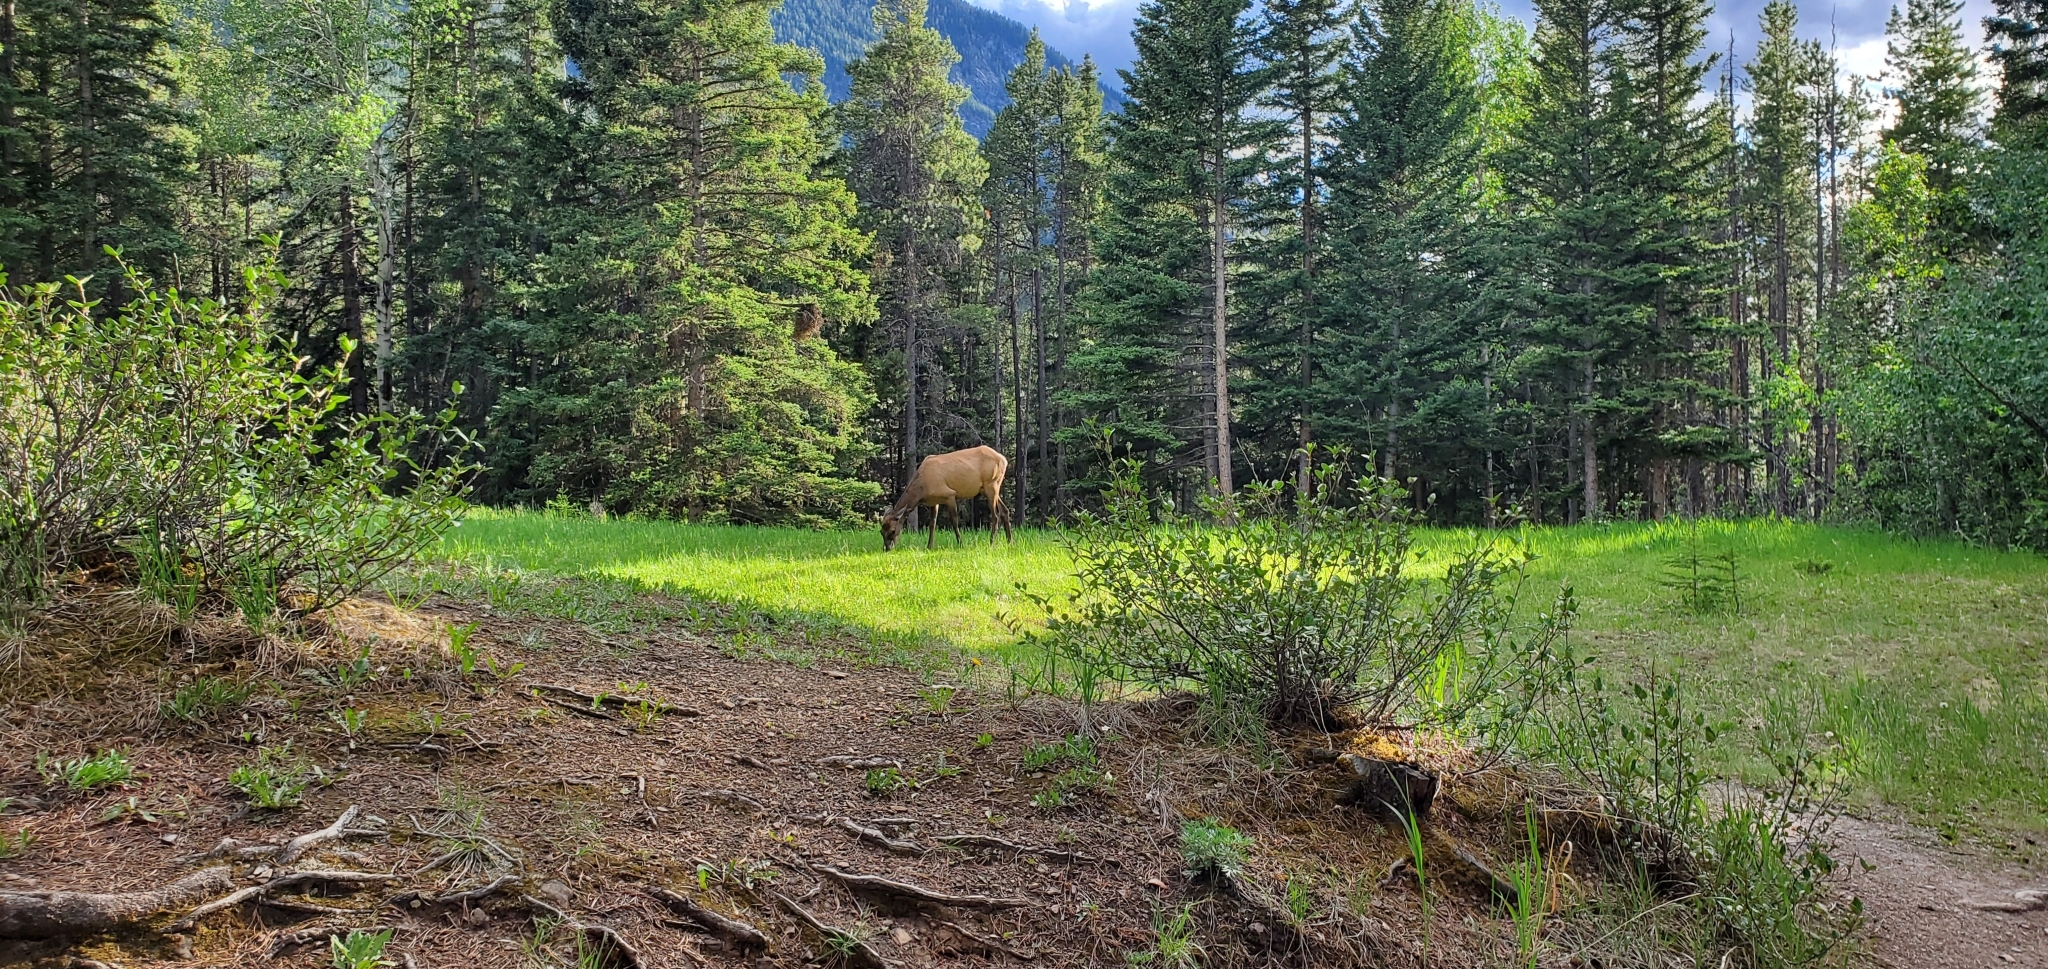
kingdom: Animalia
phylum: Chordata
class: Mammalia
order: Artiodactyla
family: Cervidae
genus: Cervus
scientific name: Cervus elaphus
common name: Red deer
